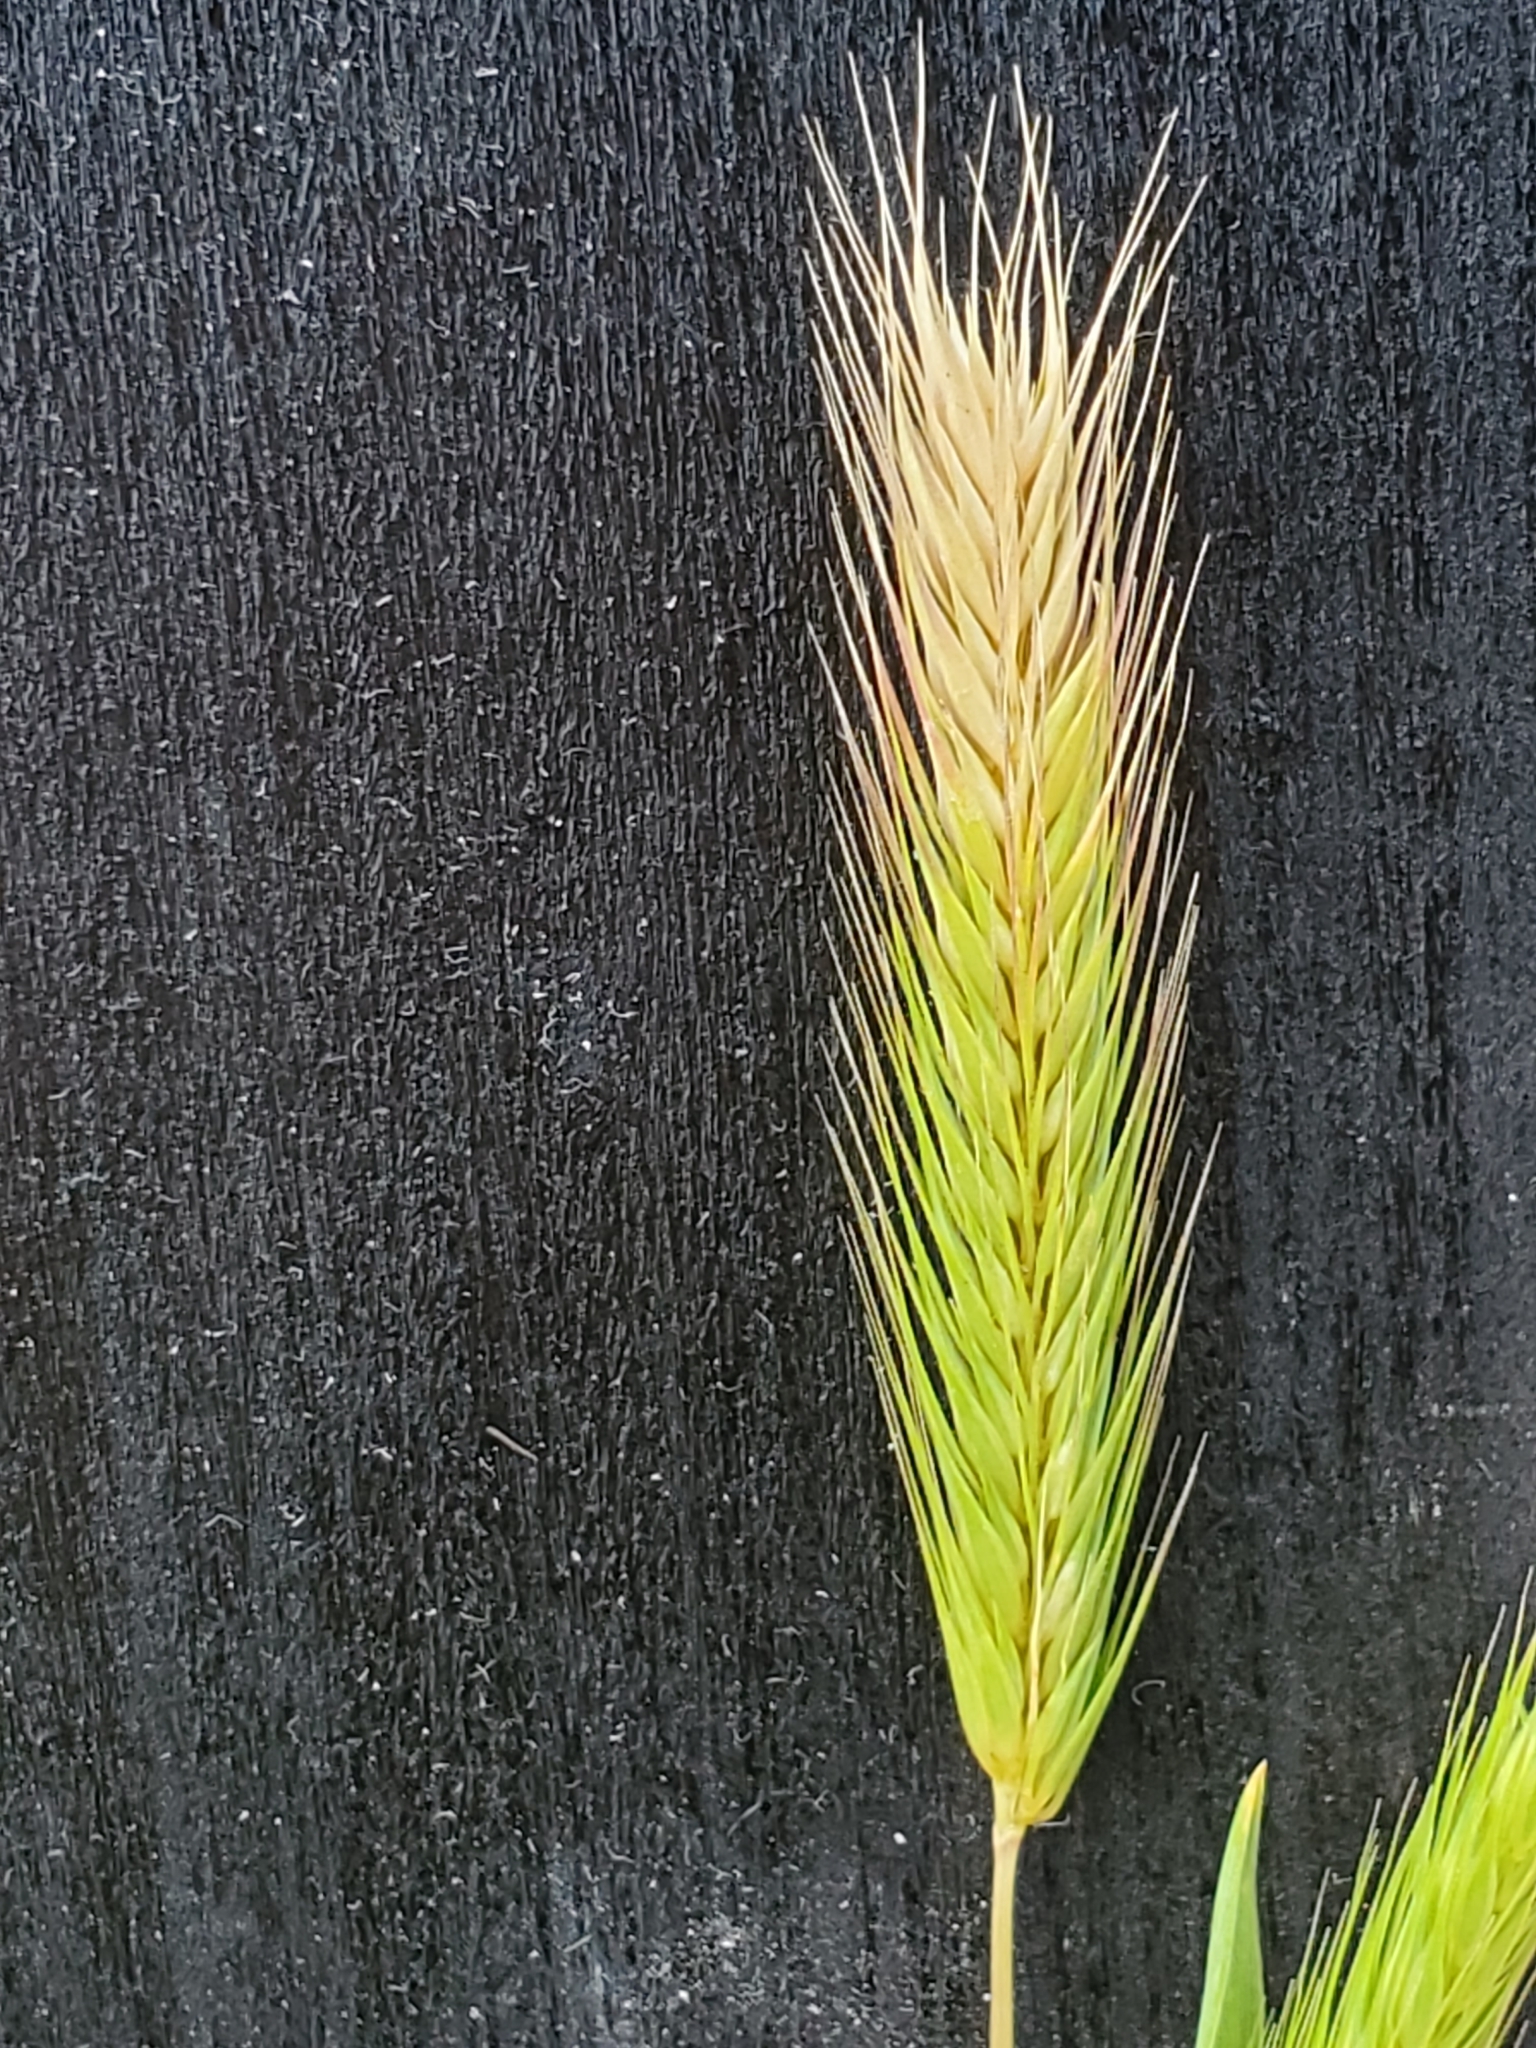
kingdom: Plantae
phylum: Tracheophyta
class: Liliopsida
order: Poales
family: Poaceae
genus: Hordeum
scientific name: Hordeum pusillum
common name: Little barley
